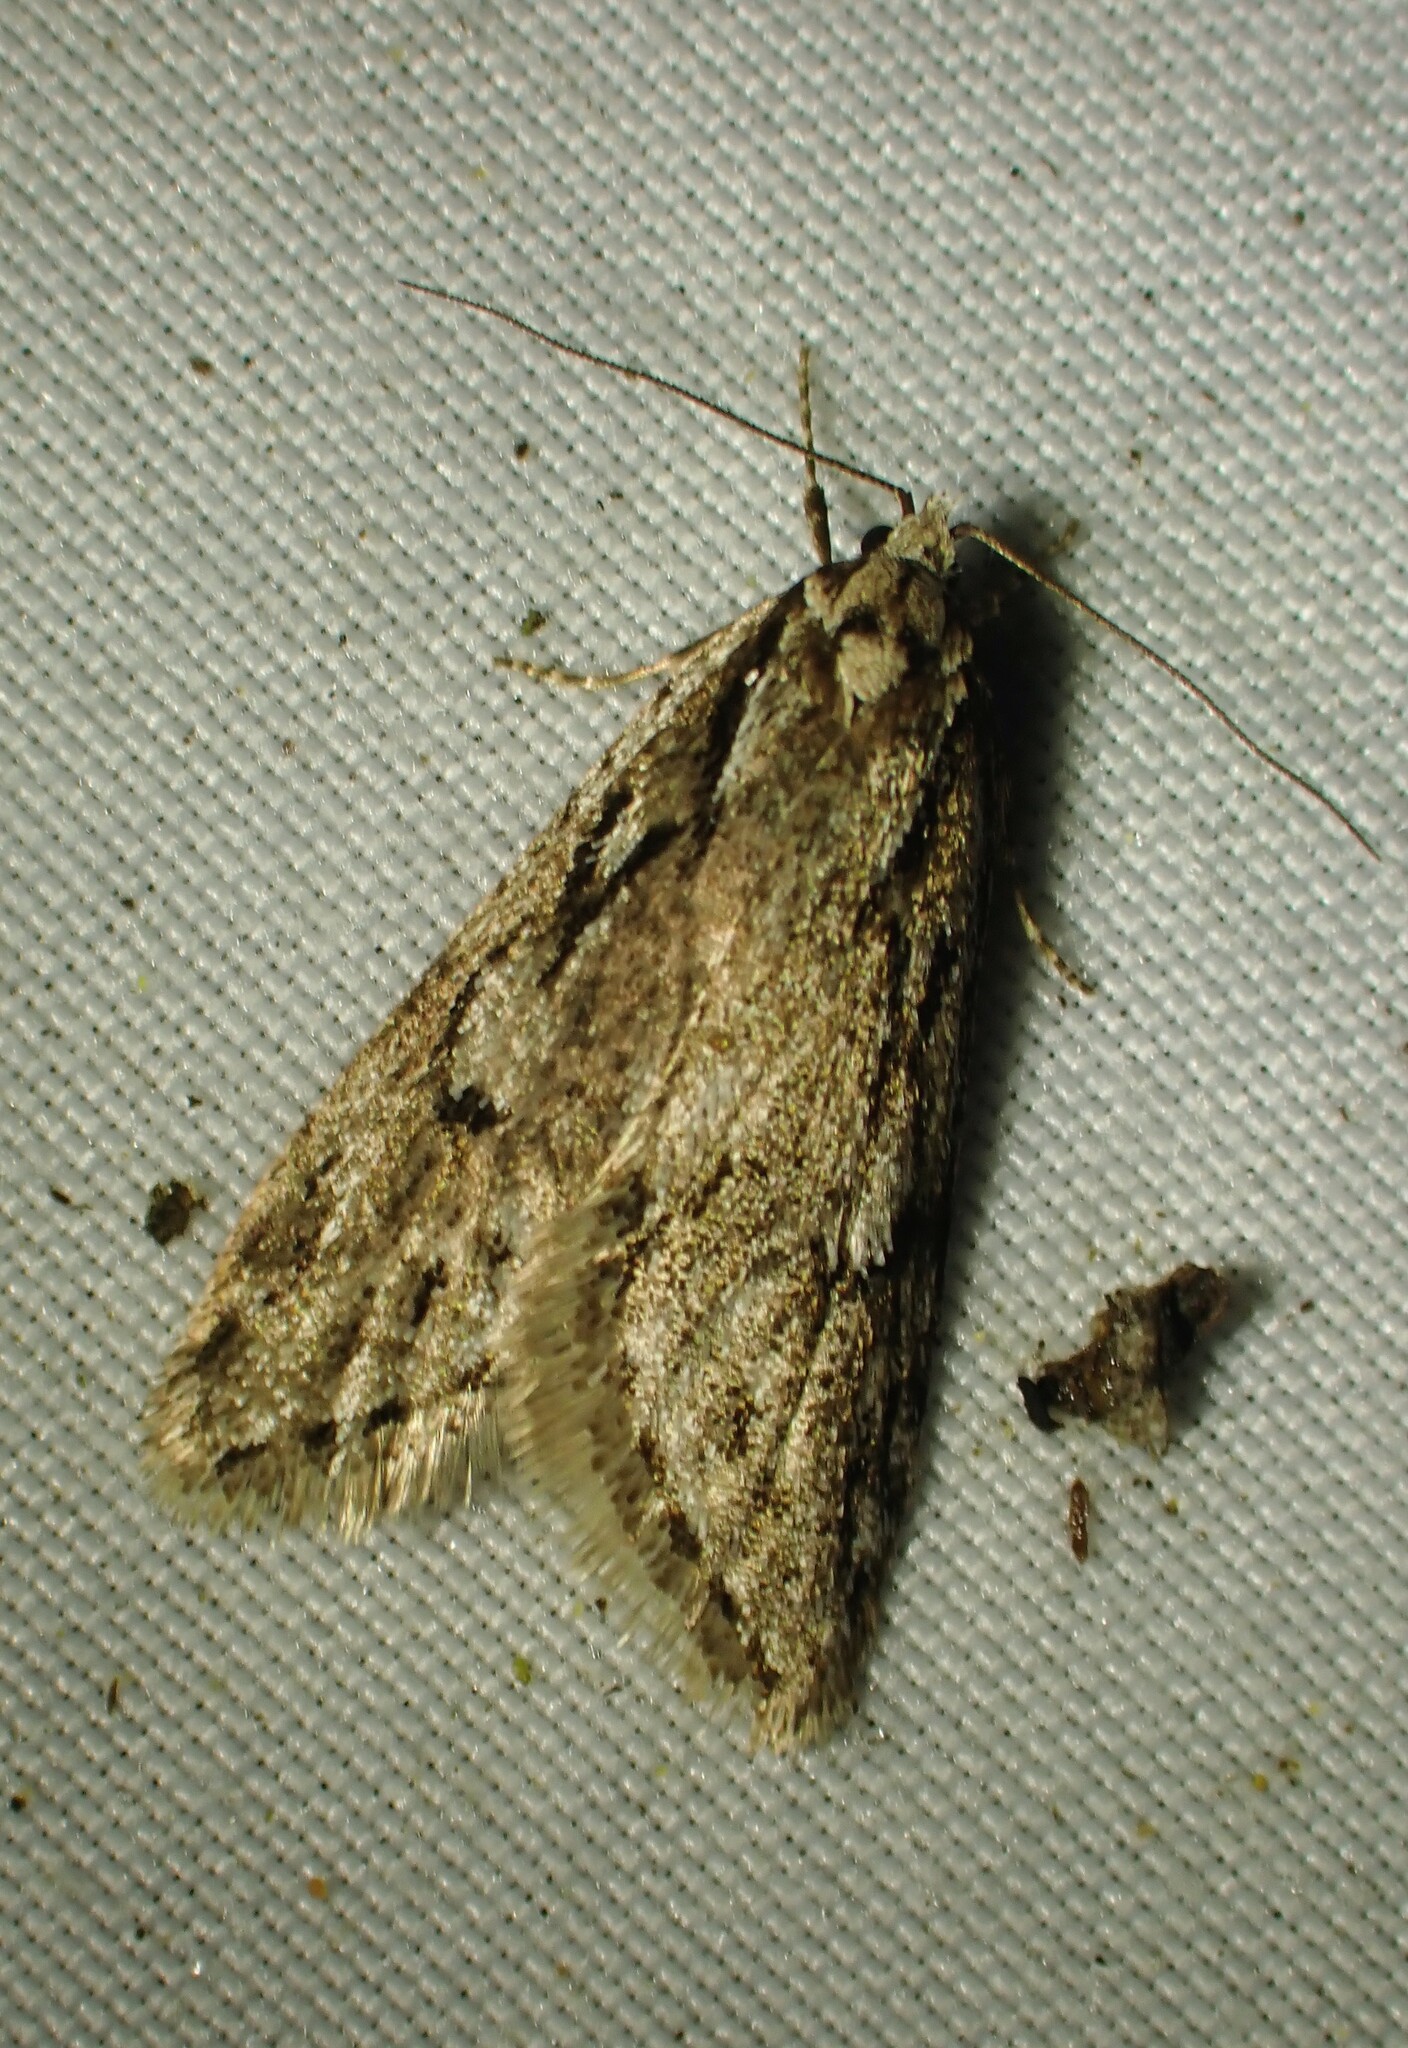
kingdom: Animalia
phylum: Arthropoda
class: Insecta
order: Lepidoptera
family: Depressariidae
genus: Semioscopis
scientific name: Semioscopis aurorella
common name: Aurora flatbody moth
